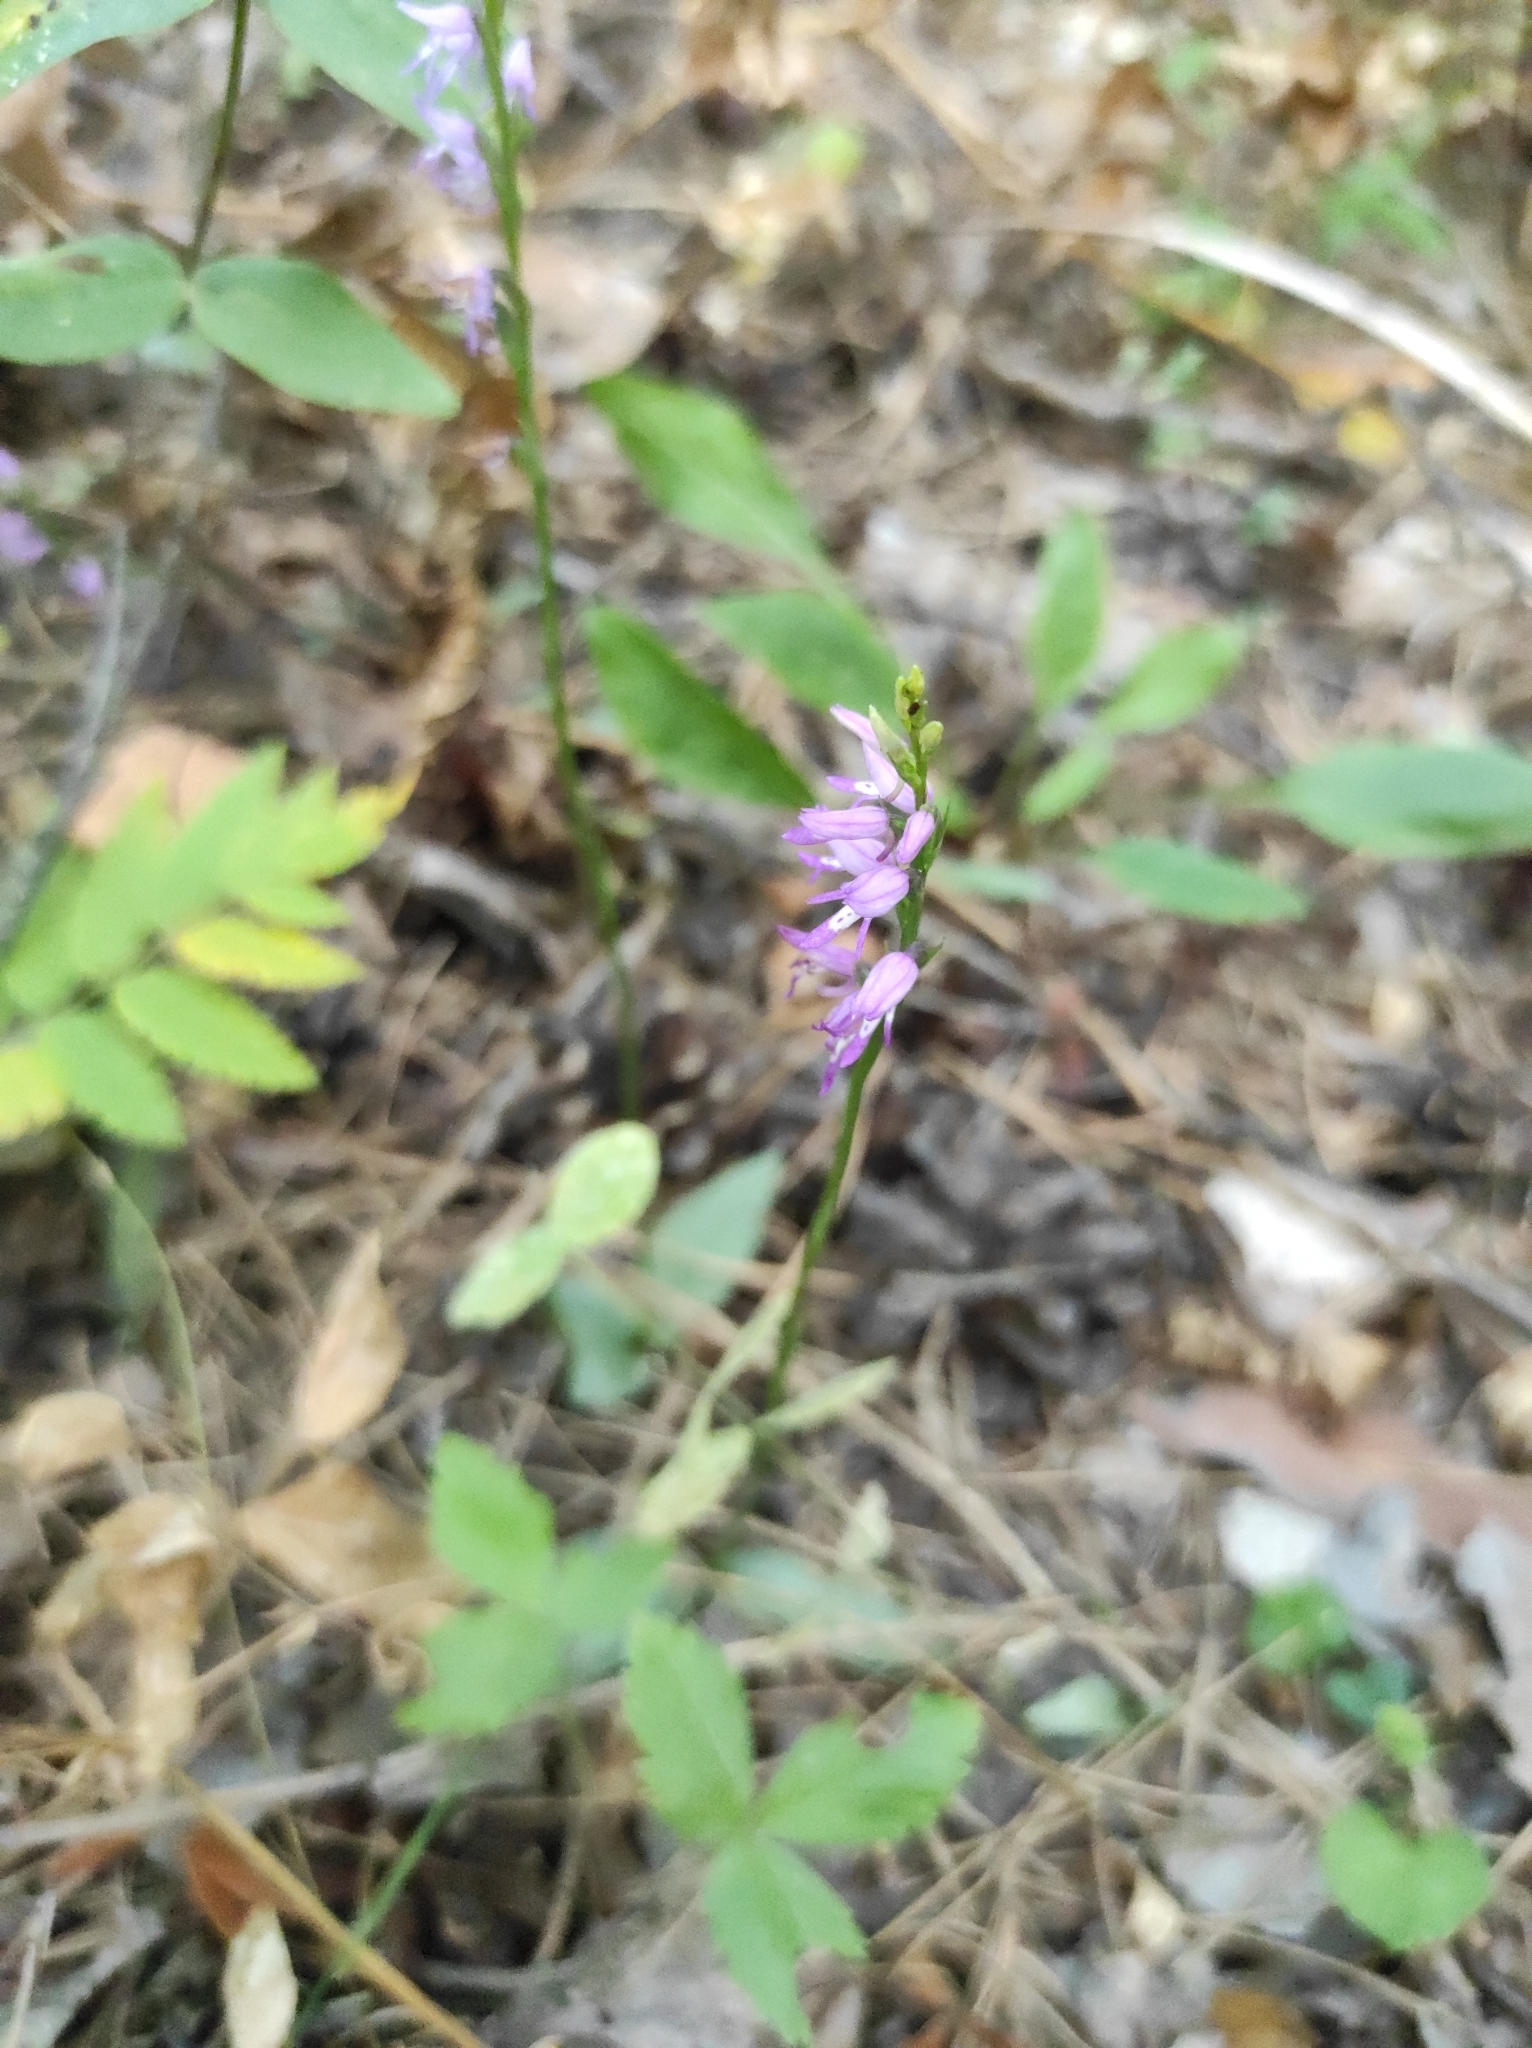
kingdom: Plantae
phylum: Tracheophyta
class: Liliopsida
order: Asparagales
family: Orchidaceae
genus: Hemipilia
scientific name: Hemipilia cucullata
